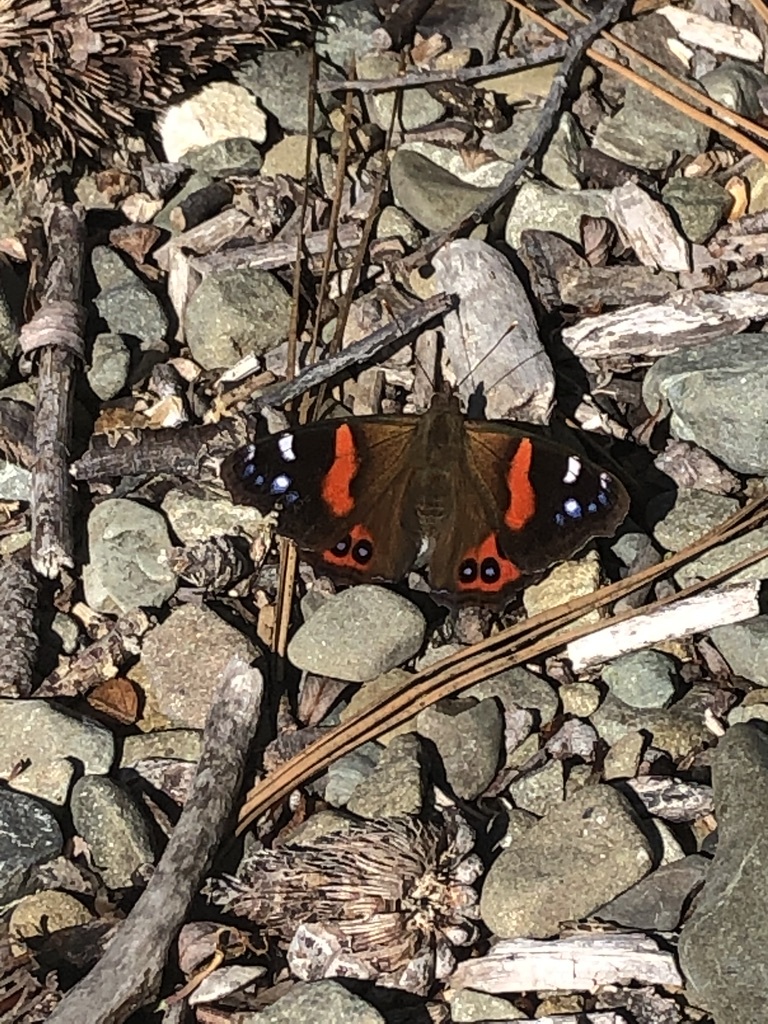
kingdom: Animalia
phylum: Arthropoda
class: Insecta
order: Lepidoptera
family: Nymphalidae
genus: Vanessa
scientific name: Vanessa gonerilla
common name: New zealand red admiral
